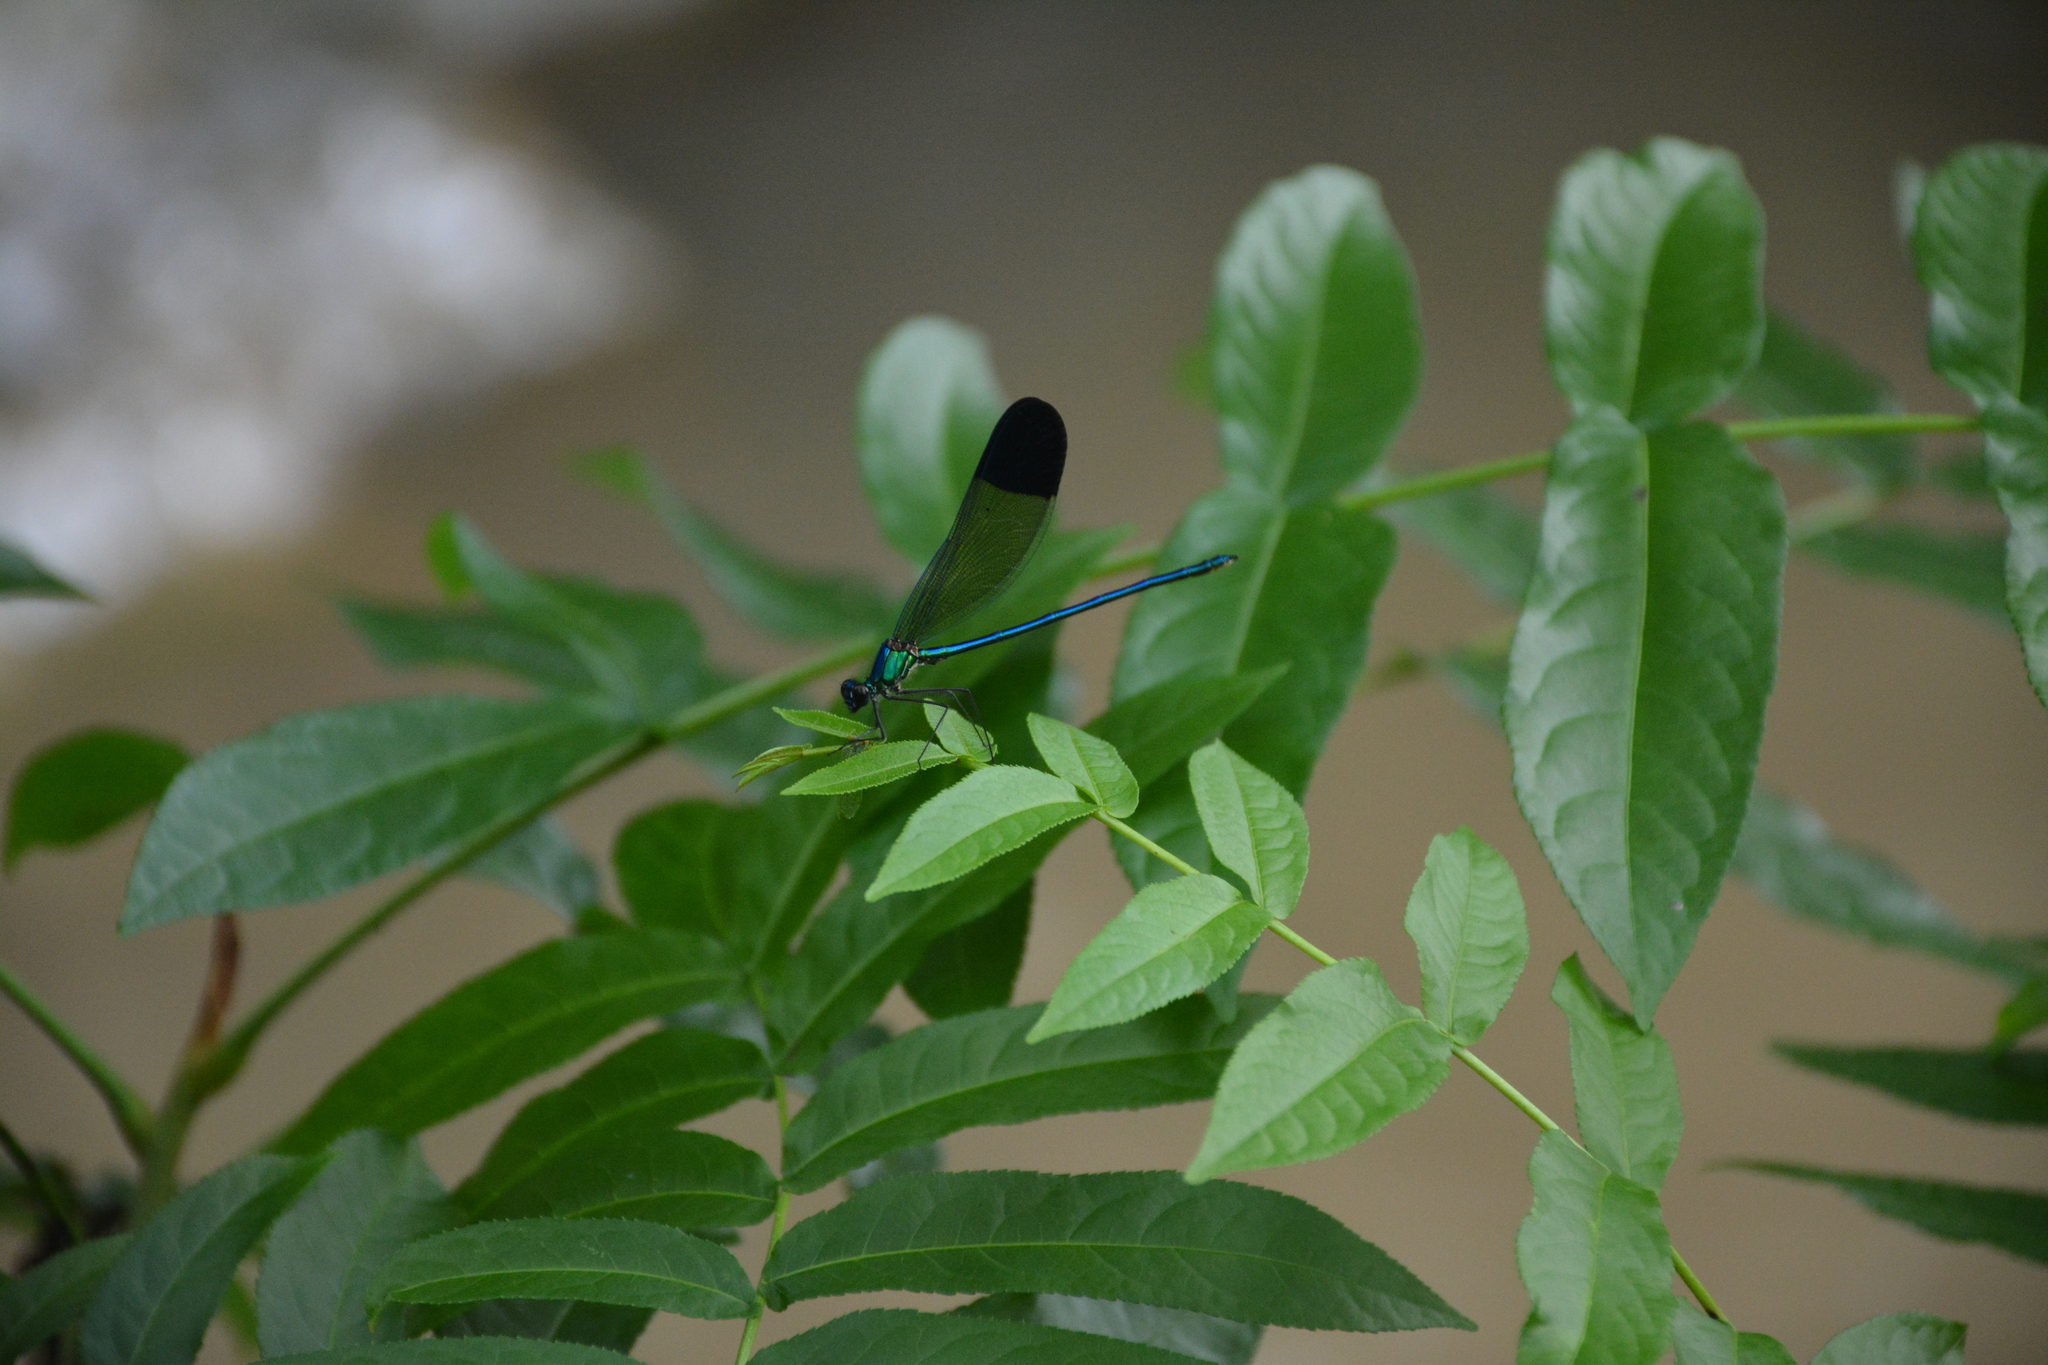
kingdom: Animalia
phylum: Arthropoda
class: Insecta
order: Odonata
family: Calopterygidae
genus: Calopteryx
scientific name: Calopteryx orientalis
